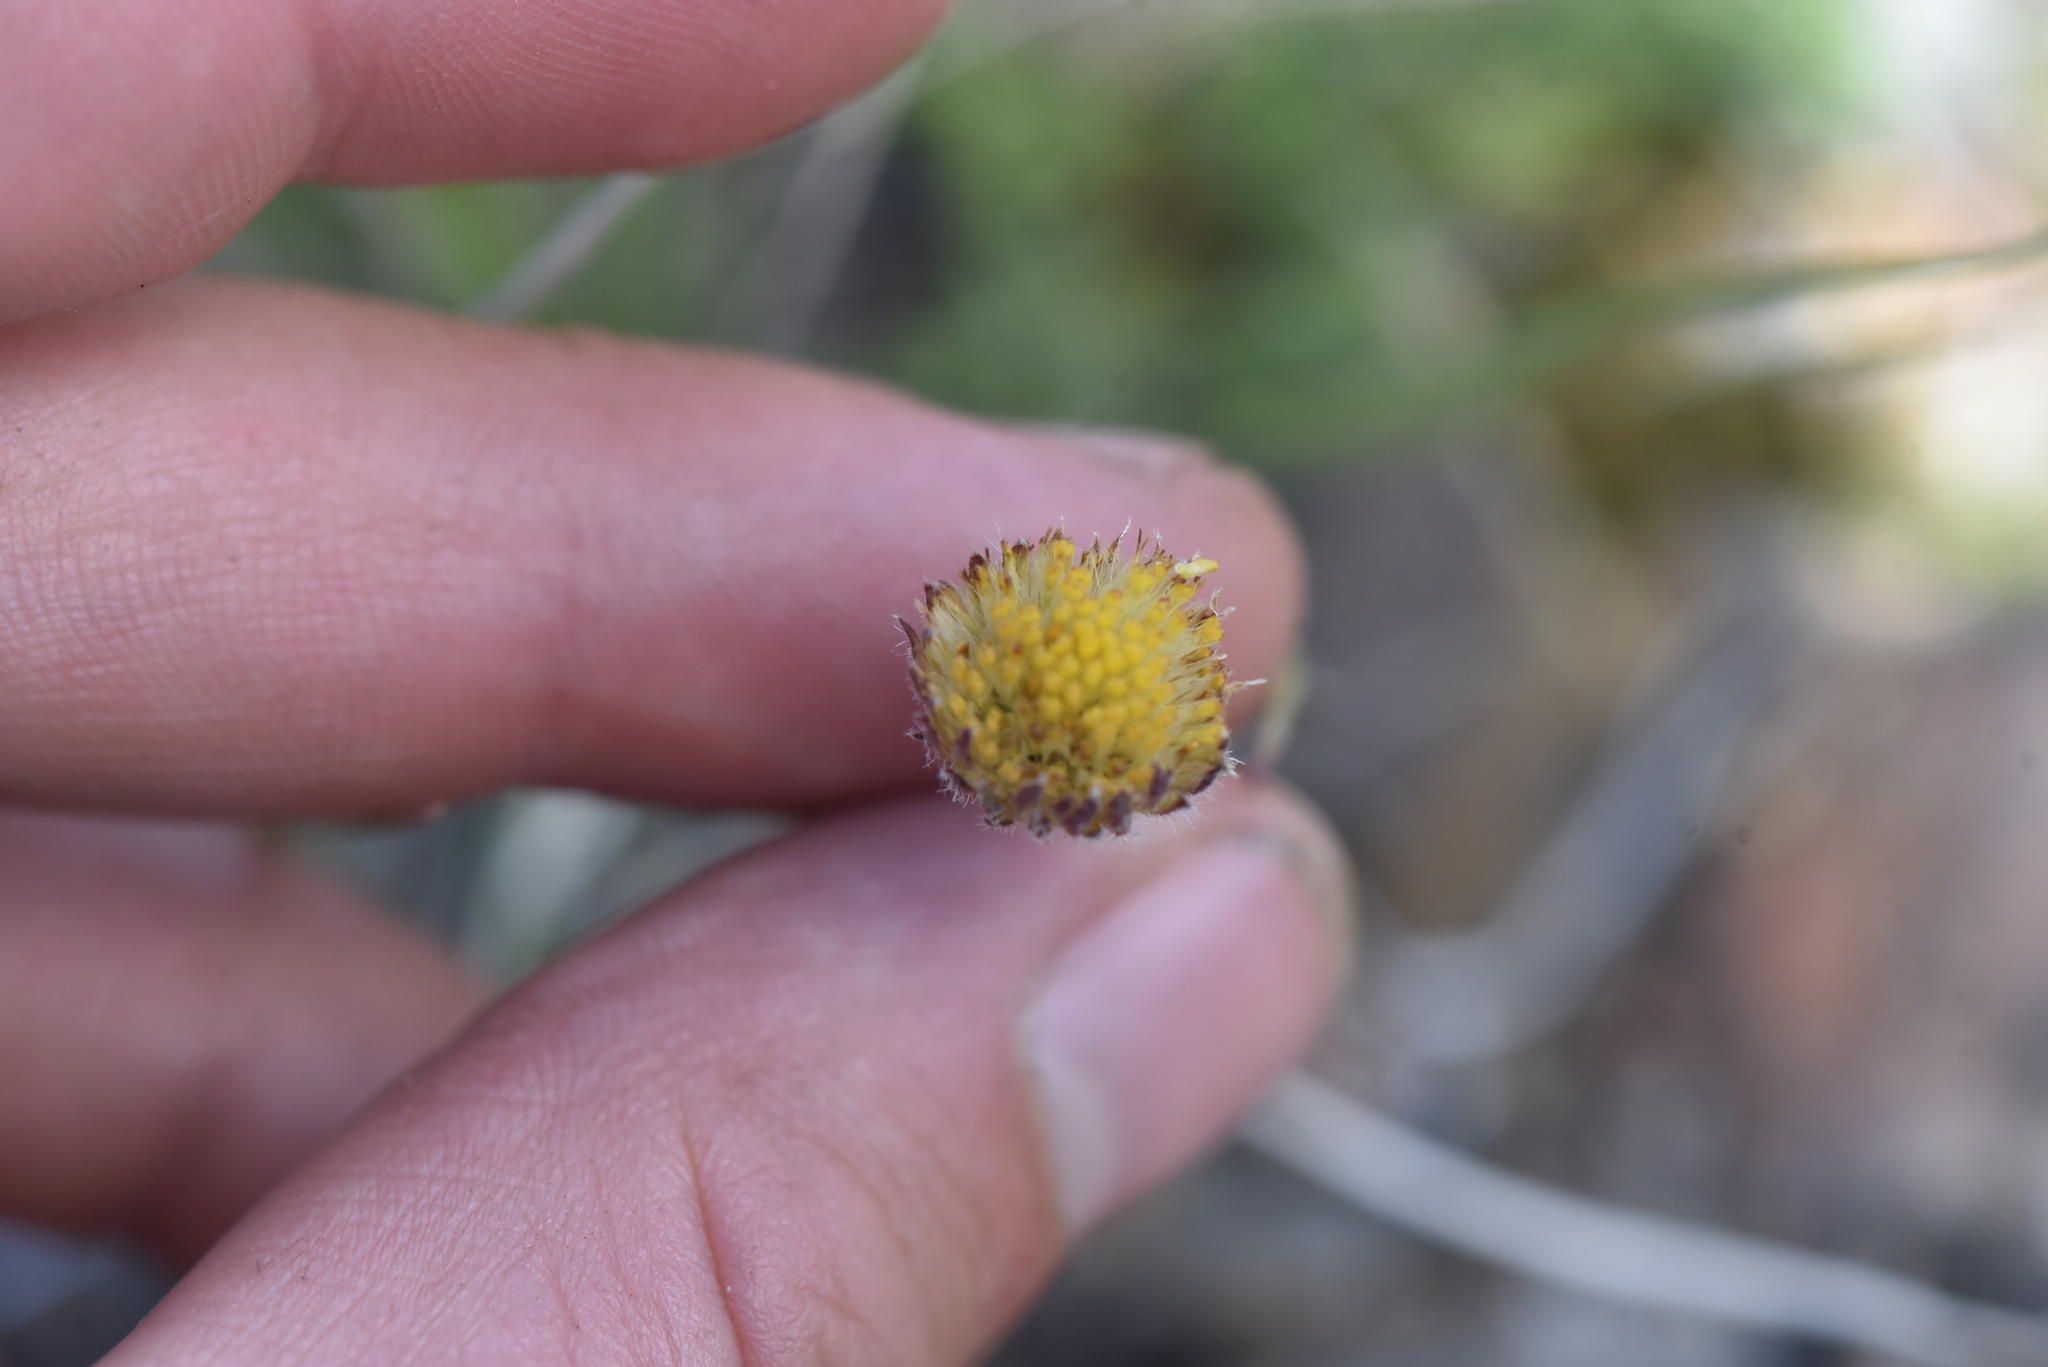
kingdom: Plantae
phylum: Tracheophyta
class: Magnoliopsida
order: Asterales
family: Asteraceae
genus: Erigeron
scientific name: Erigeron compositus
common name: Dwarf mountain fleabane
